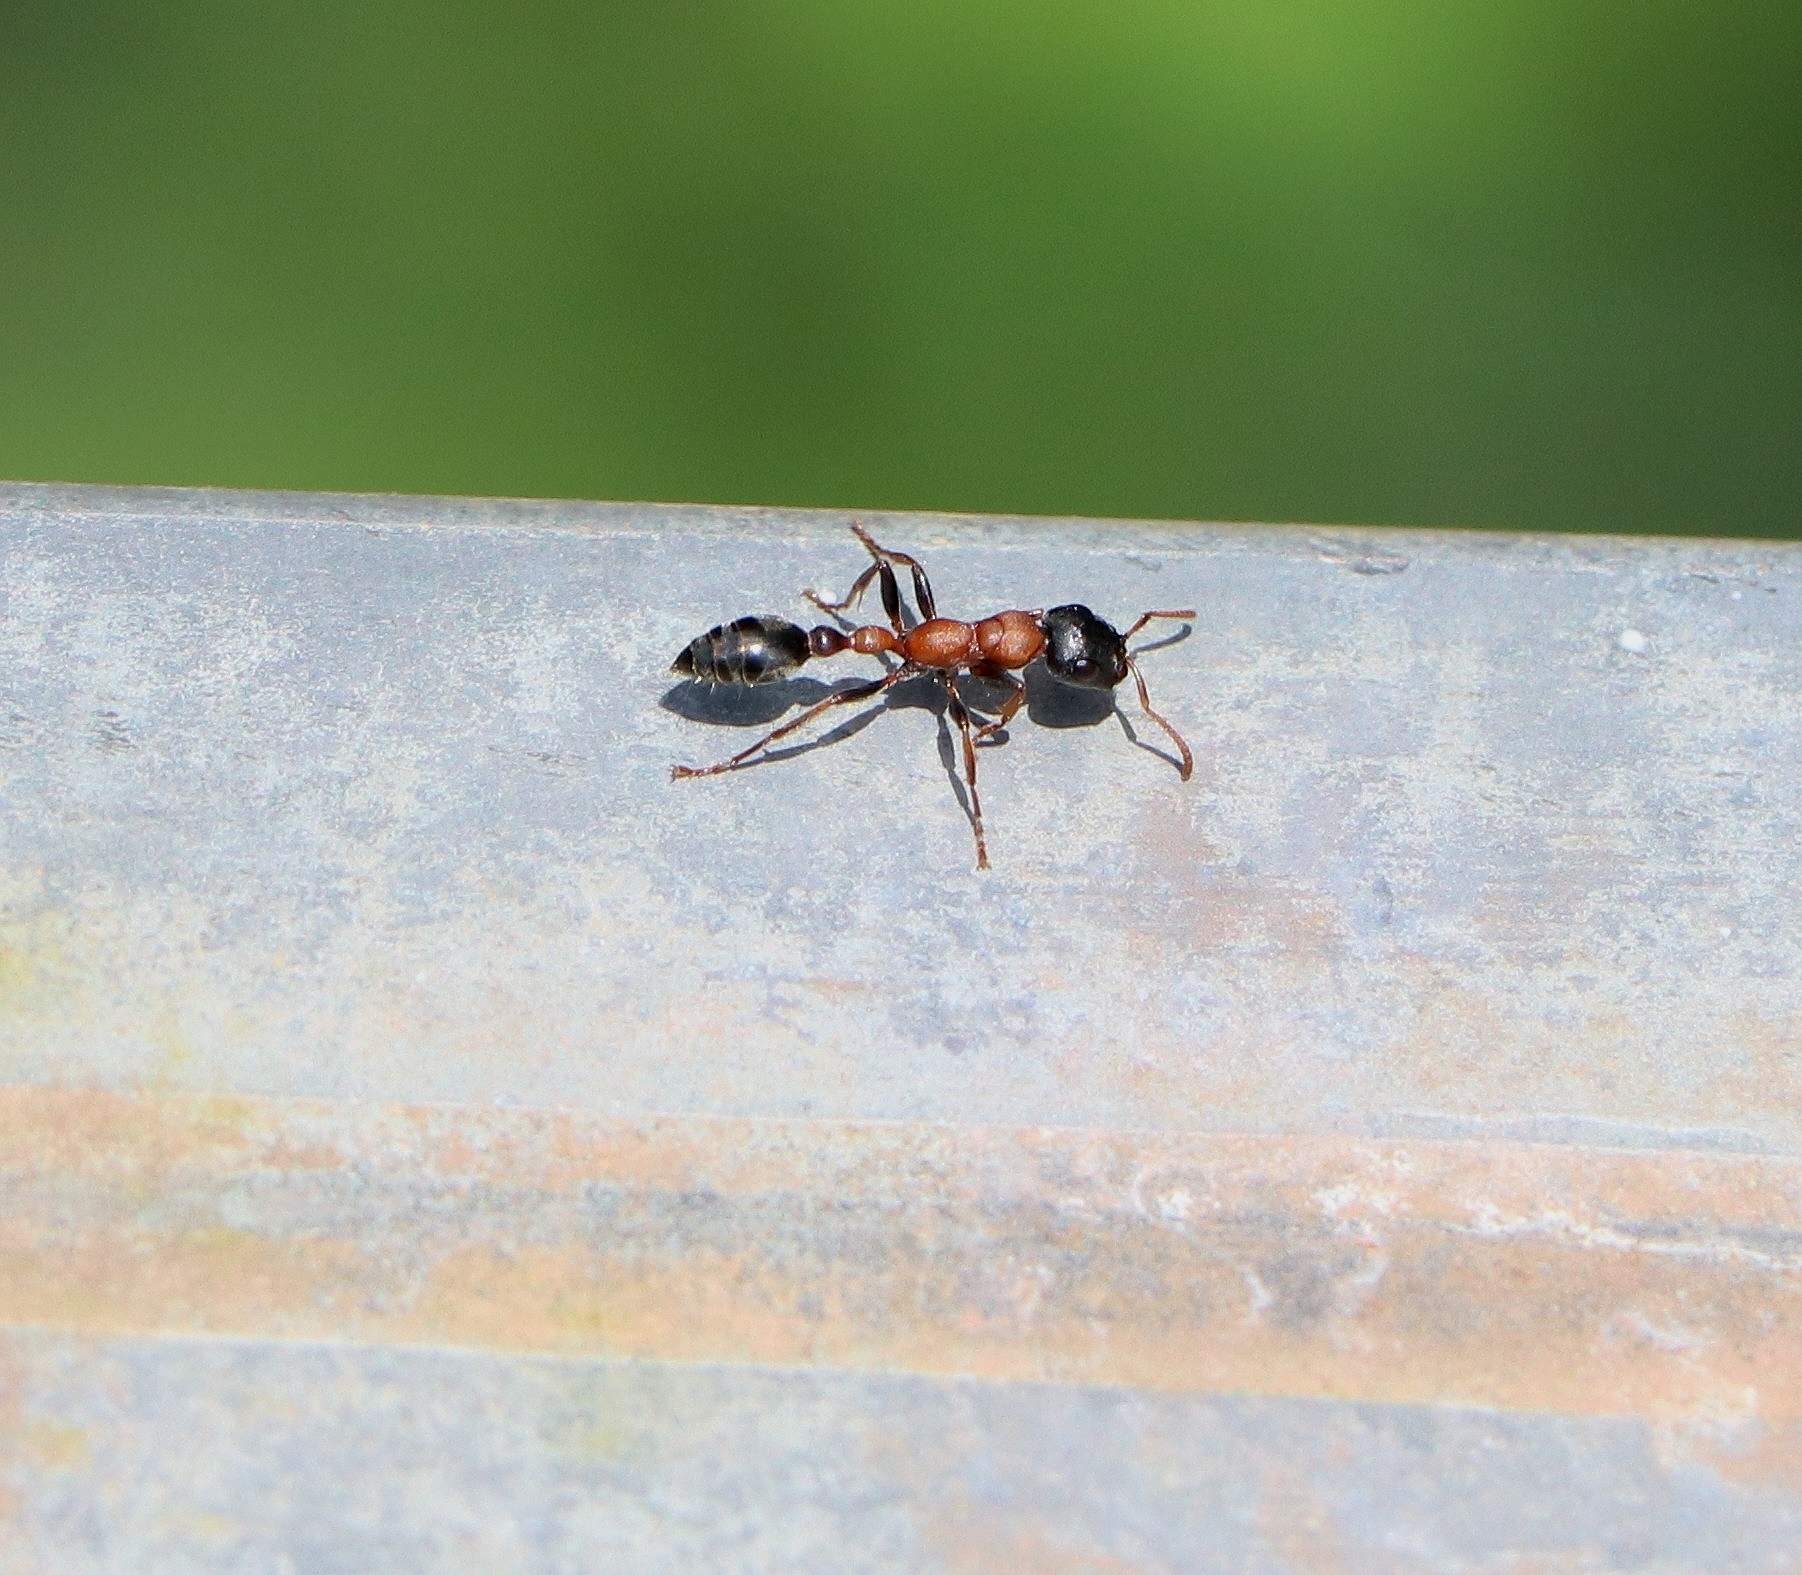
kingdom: Animalia
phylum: Arthropoda
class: Insecta
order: Hymenoptera
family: Formicidae
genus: Tetraponera
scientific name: Tetraponera rufonigra
